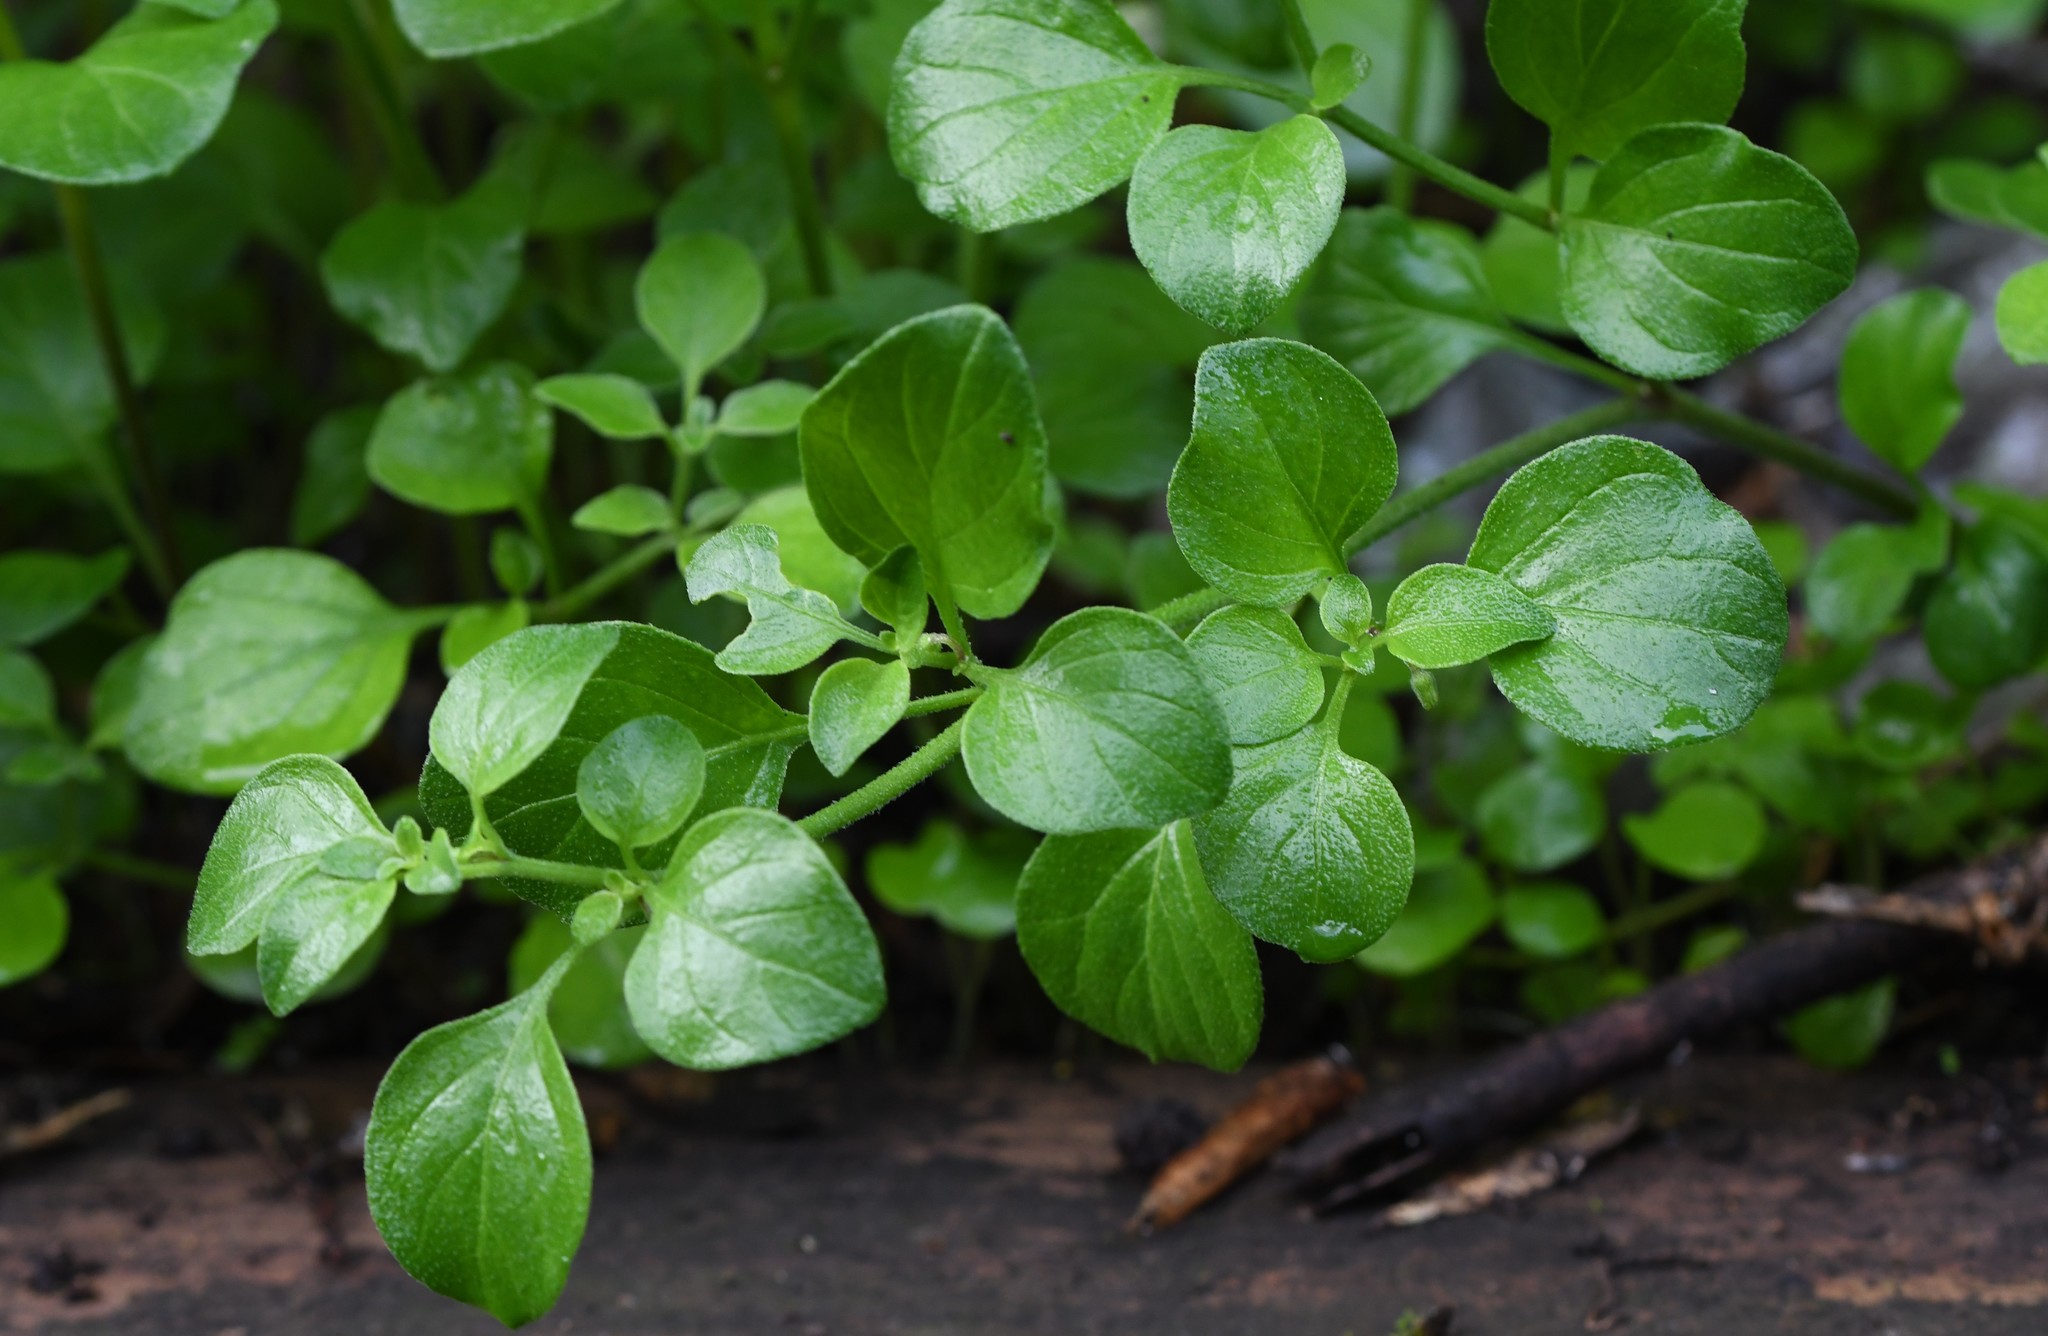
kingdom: Plantae
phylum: Tracheophyta
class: Magnoliopsida
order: Solanales
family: Solanaceae
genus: Salpichroa
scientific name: Salpichroa origanifolia
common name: Lily-of-the-valley-vine
